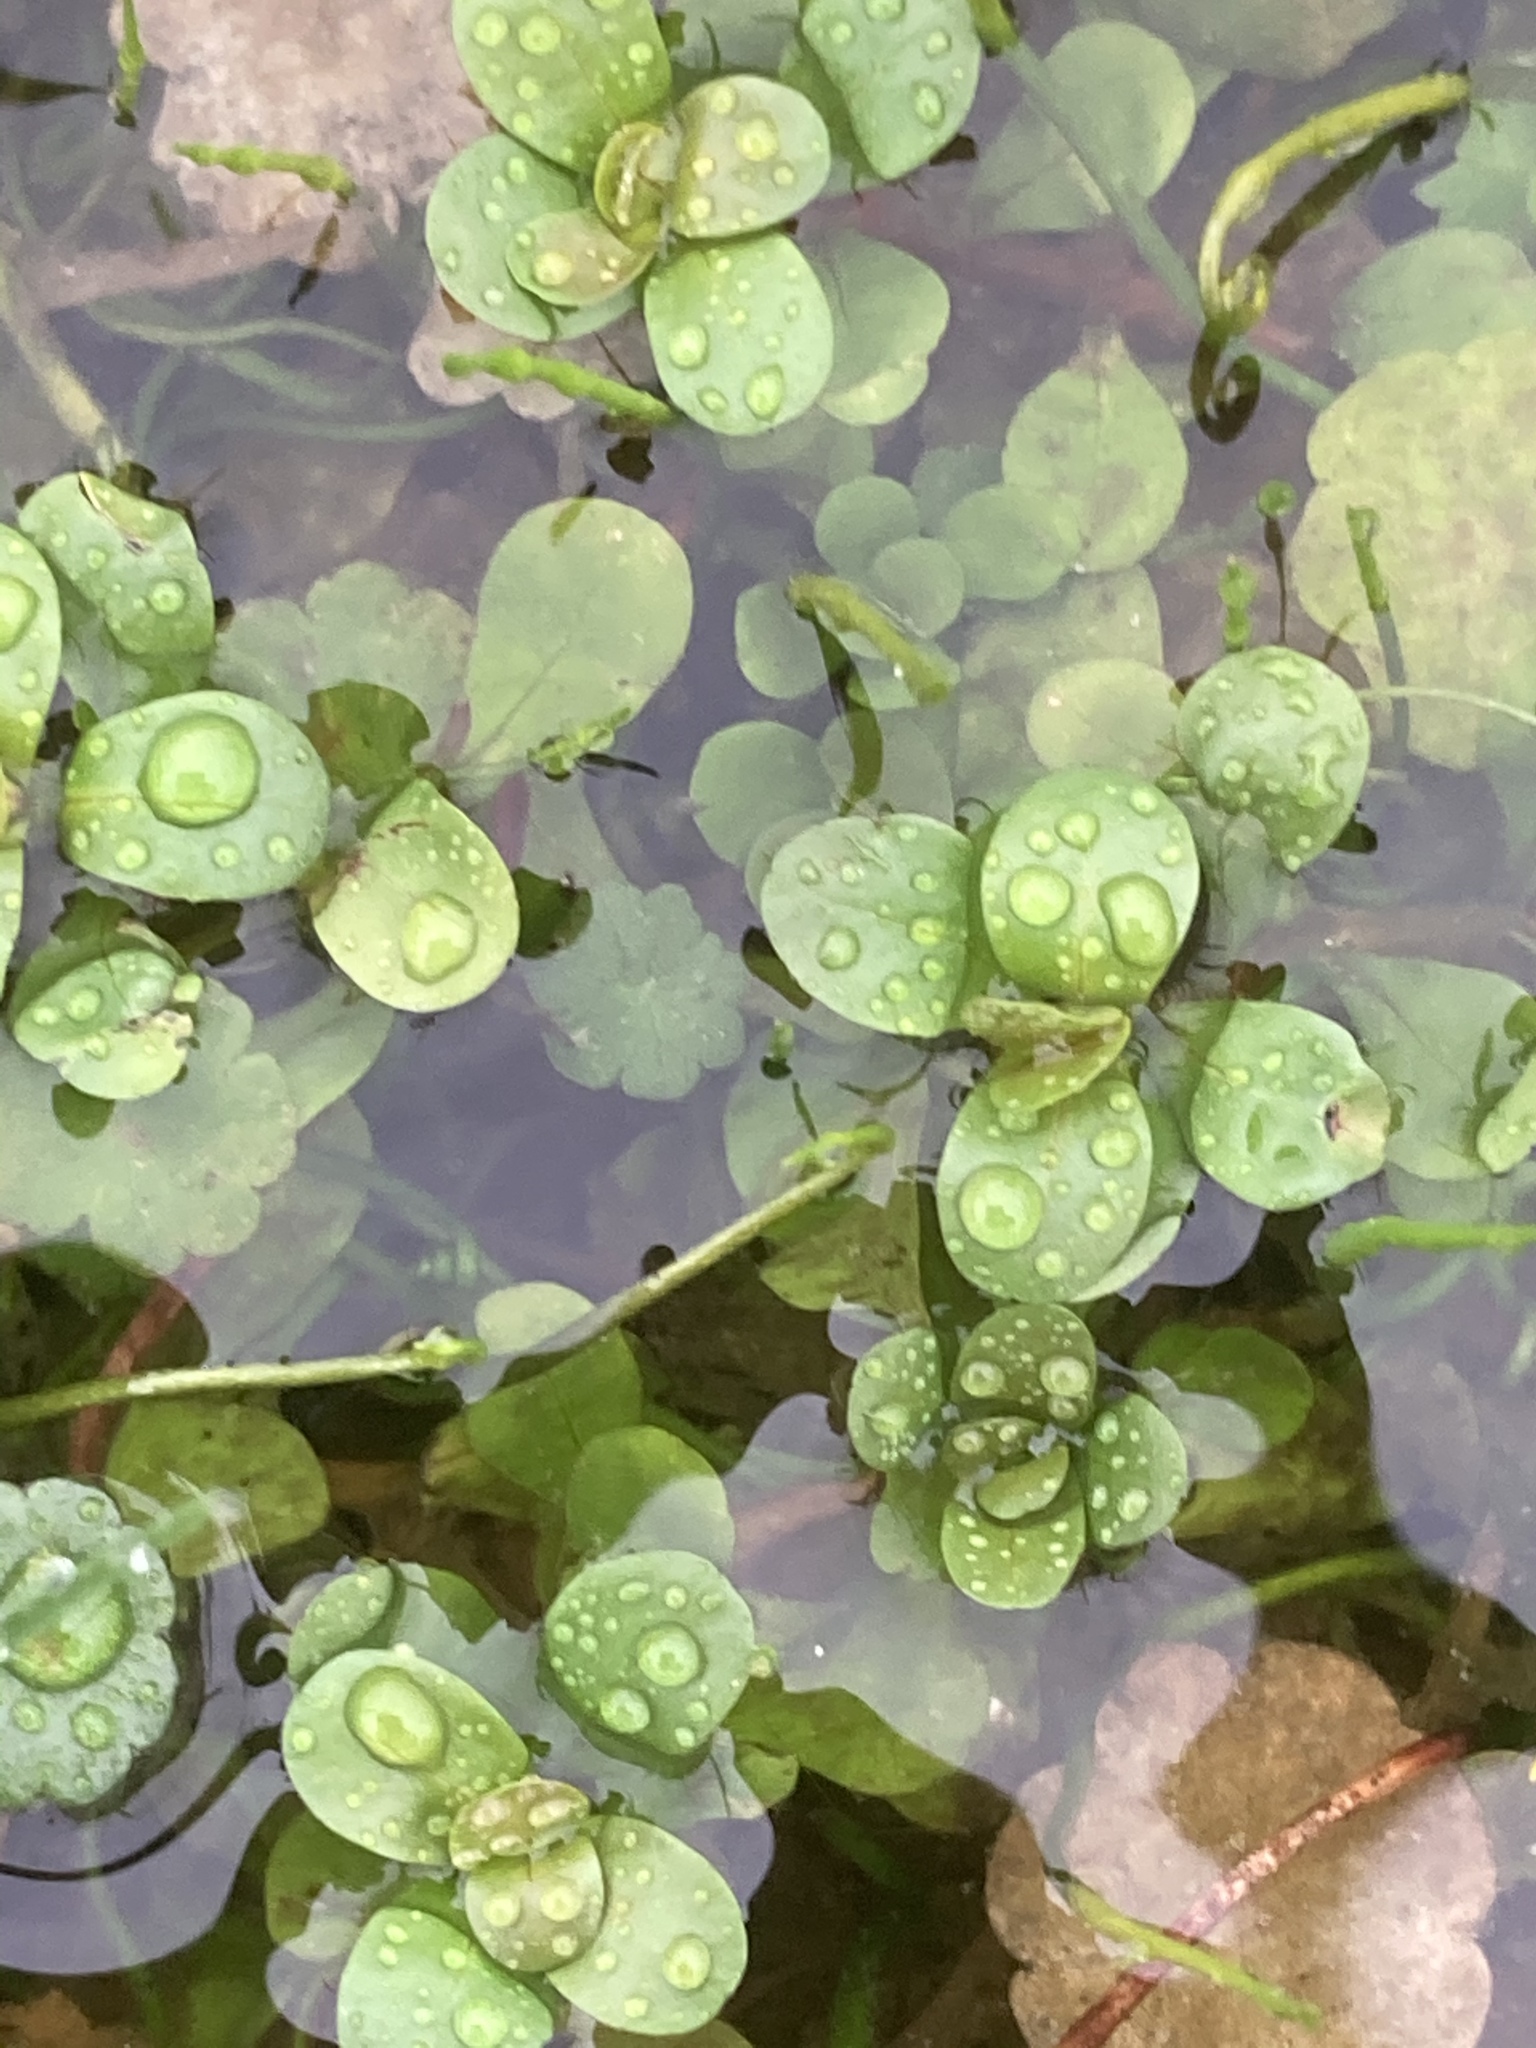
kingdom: Plantae
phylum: Tracheophyta
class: Magnoliopsida
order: Myrtales
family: Lythraceae
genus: Lythrum
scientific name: Lythrum portula
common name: Water purslane
